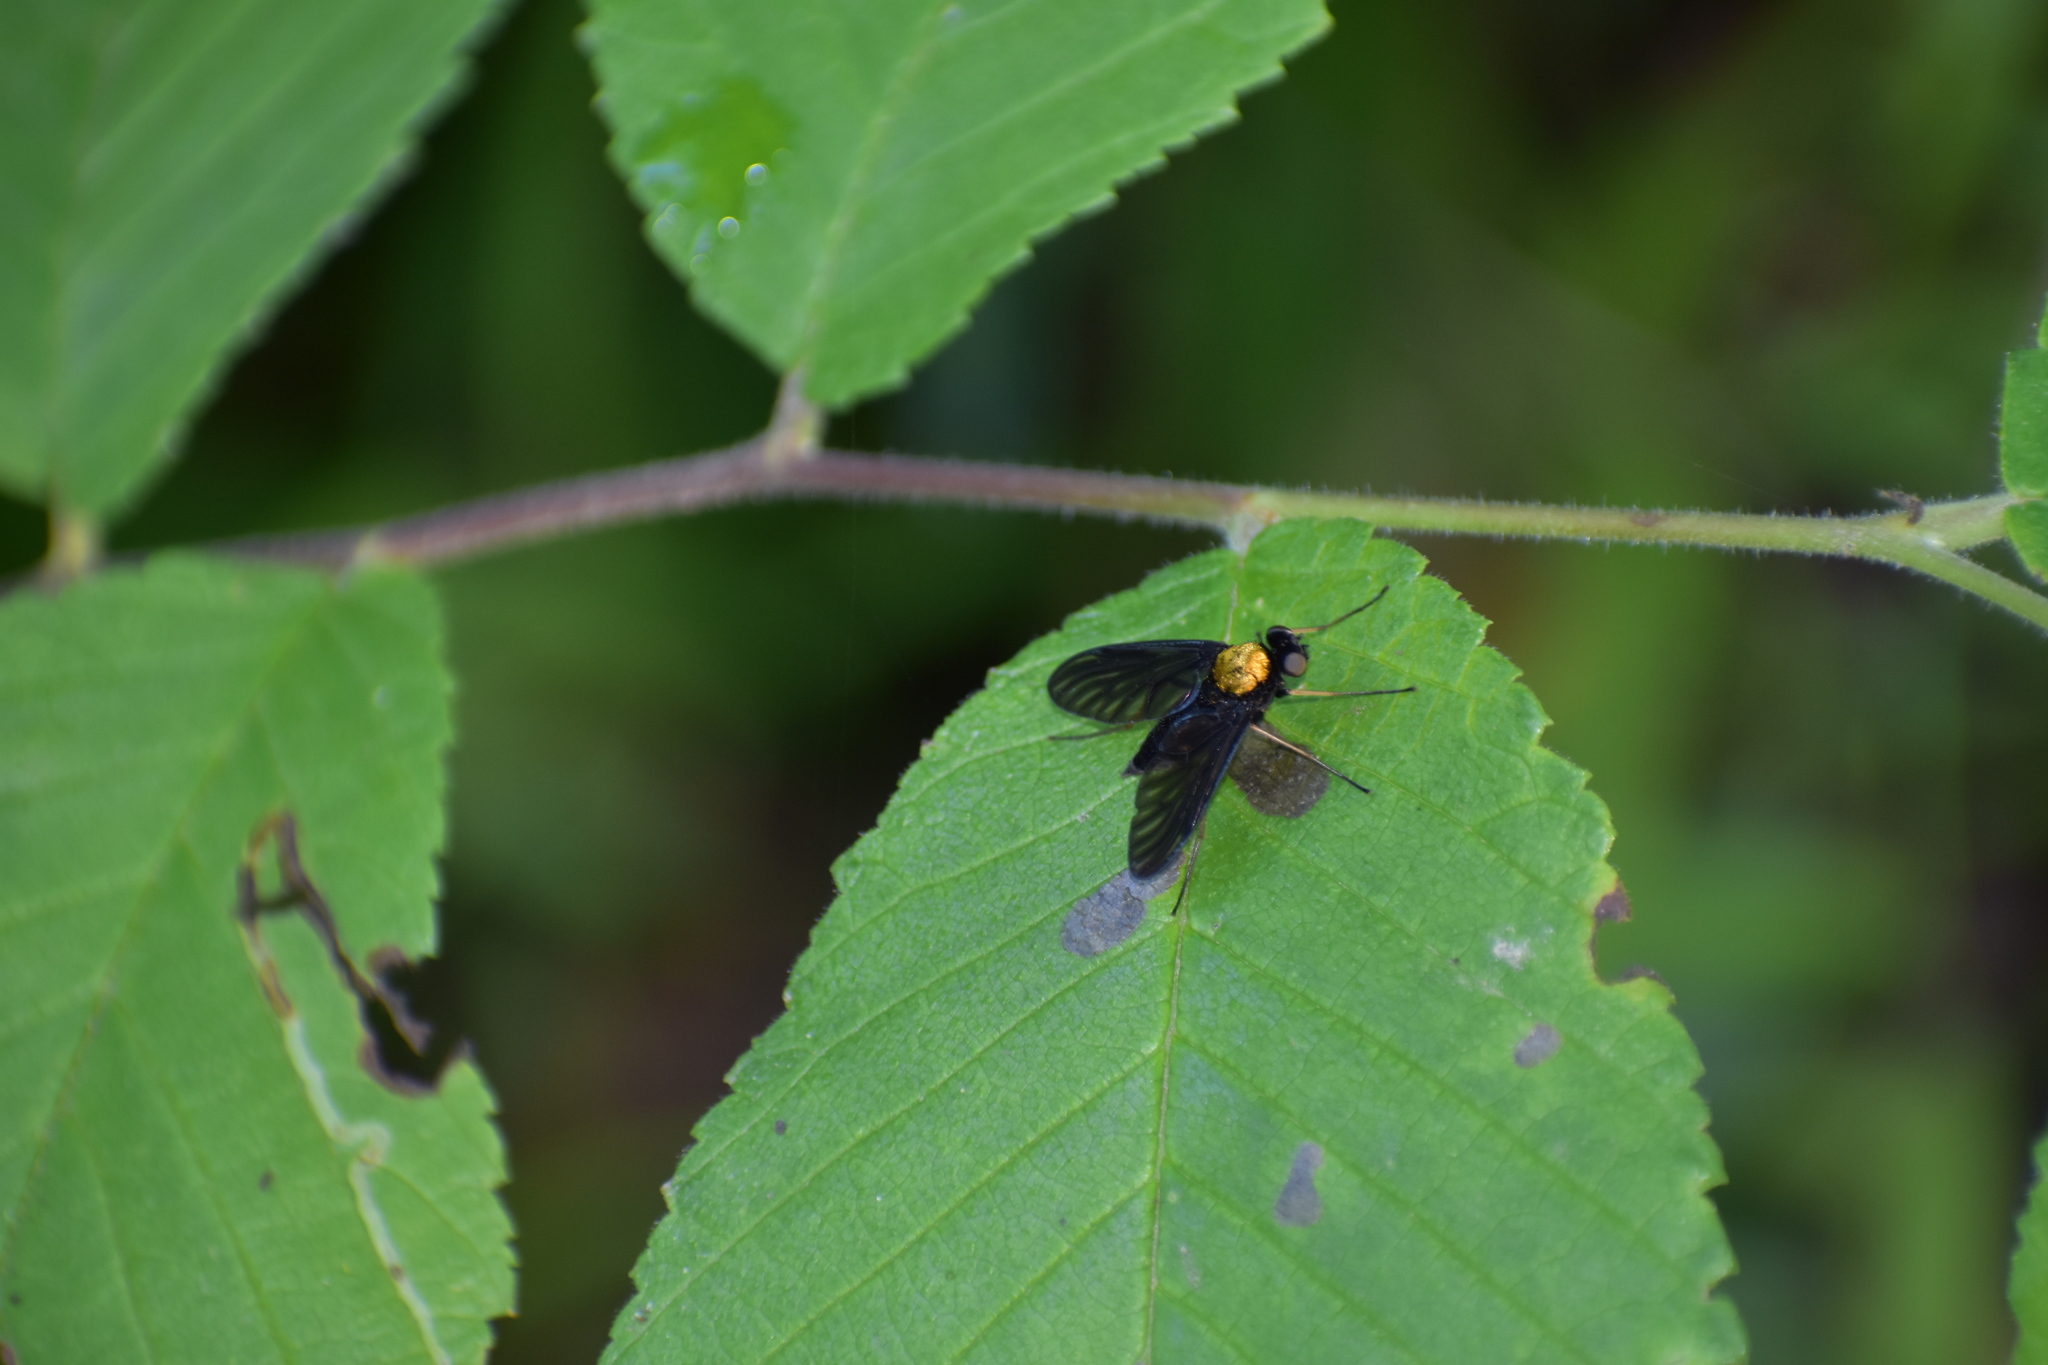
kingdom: Animalia
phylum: Arthropoda
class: Insecta
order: Diptera
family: Rhagionidae
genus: Chrysopilus
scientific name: Chrysopilus thoracicus
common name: Golden-backed snipe fly
